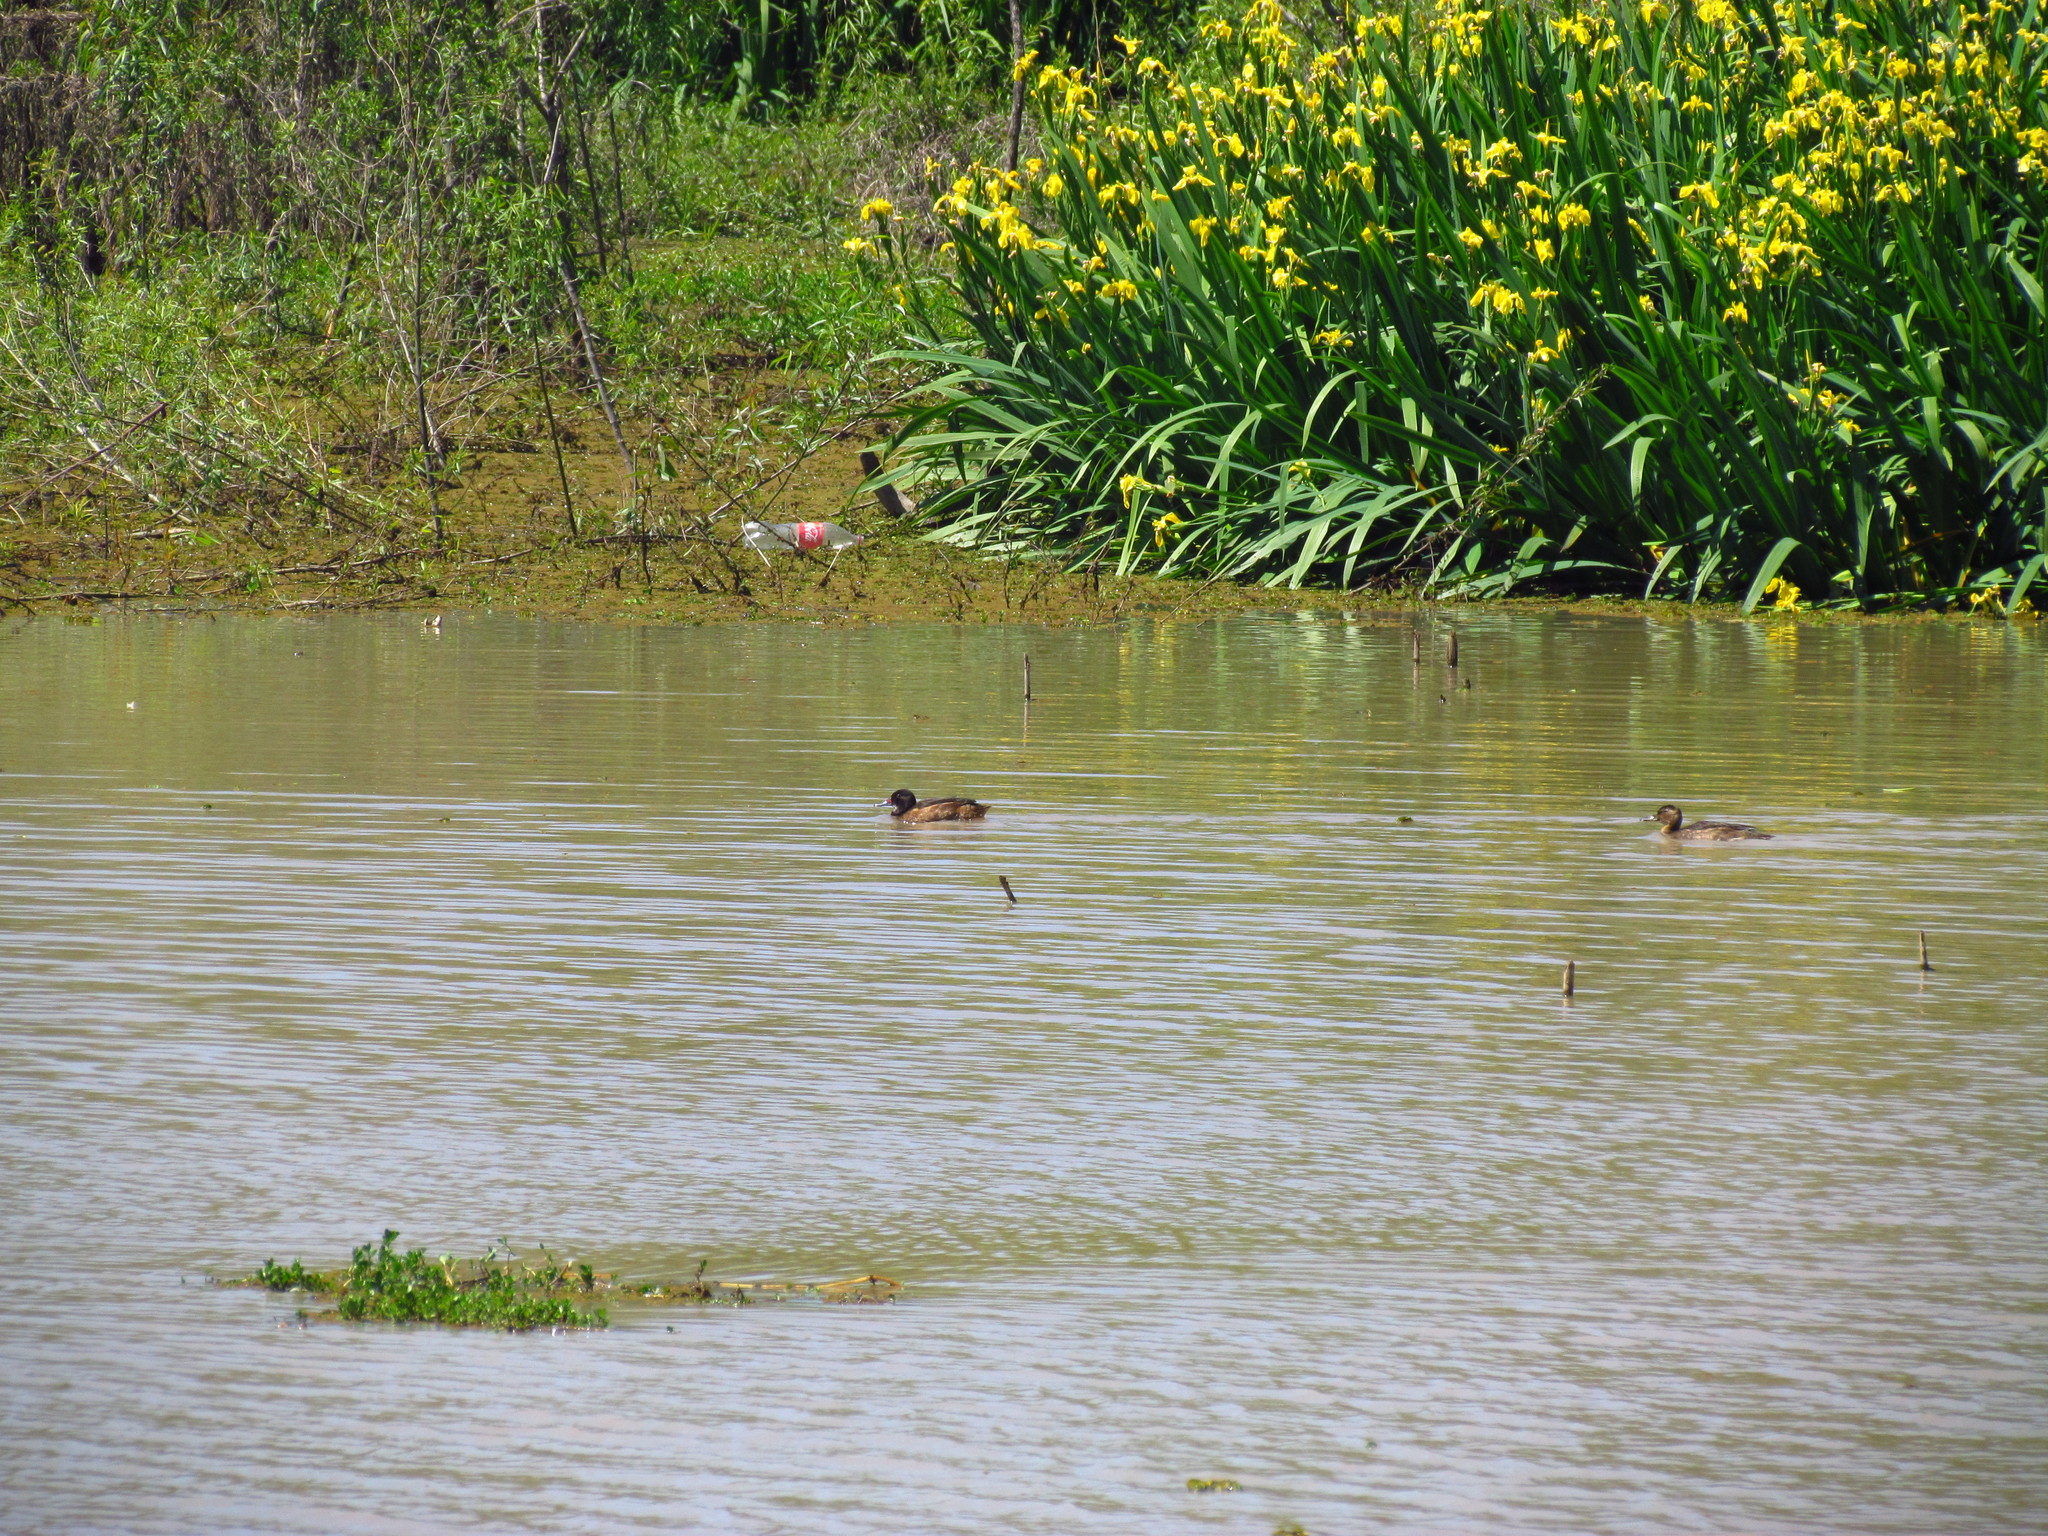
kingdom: Animalia
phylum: Chordata
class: Aves
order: Anseriformes
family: Anatidae
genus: Heteronetta
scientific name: Heteronetta atricapilla
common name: Black-headed duck
